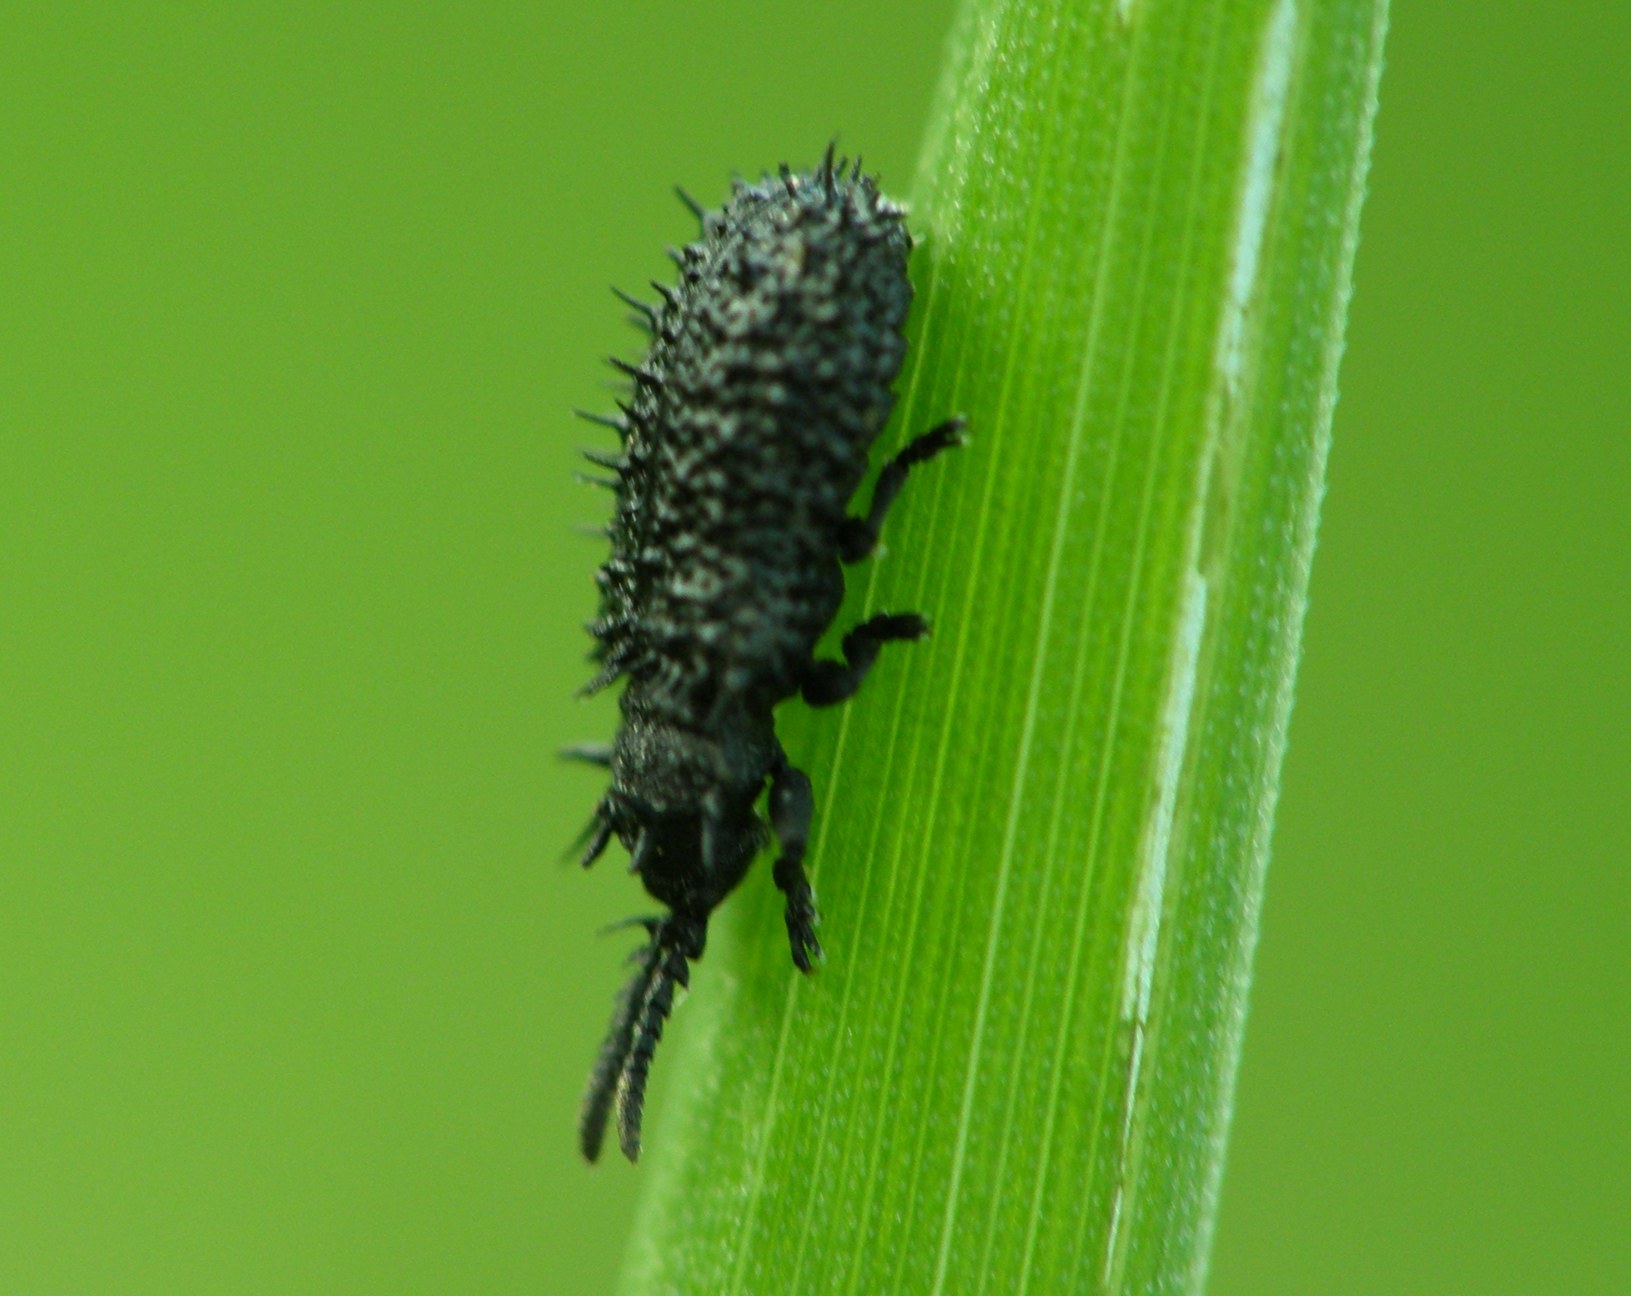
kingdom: Animalia
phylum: Arthropoda
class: Insecta
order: Coleoptera
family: Chrysomelidae
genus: Hispa
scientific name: Hispa atra
